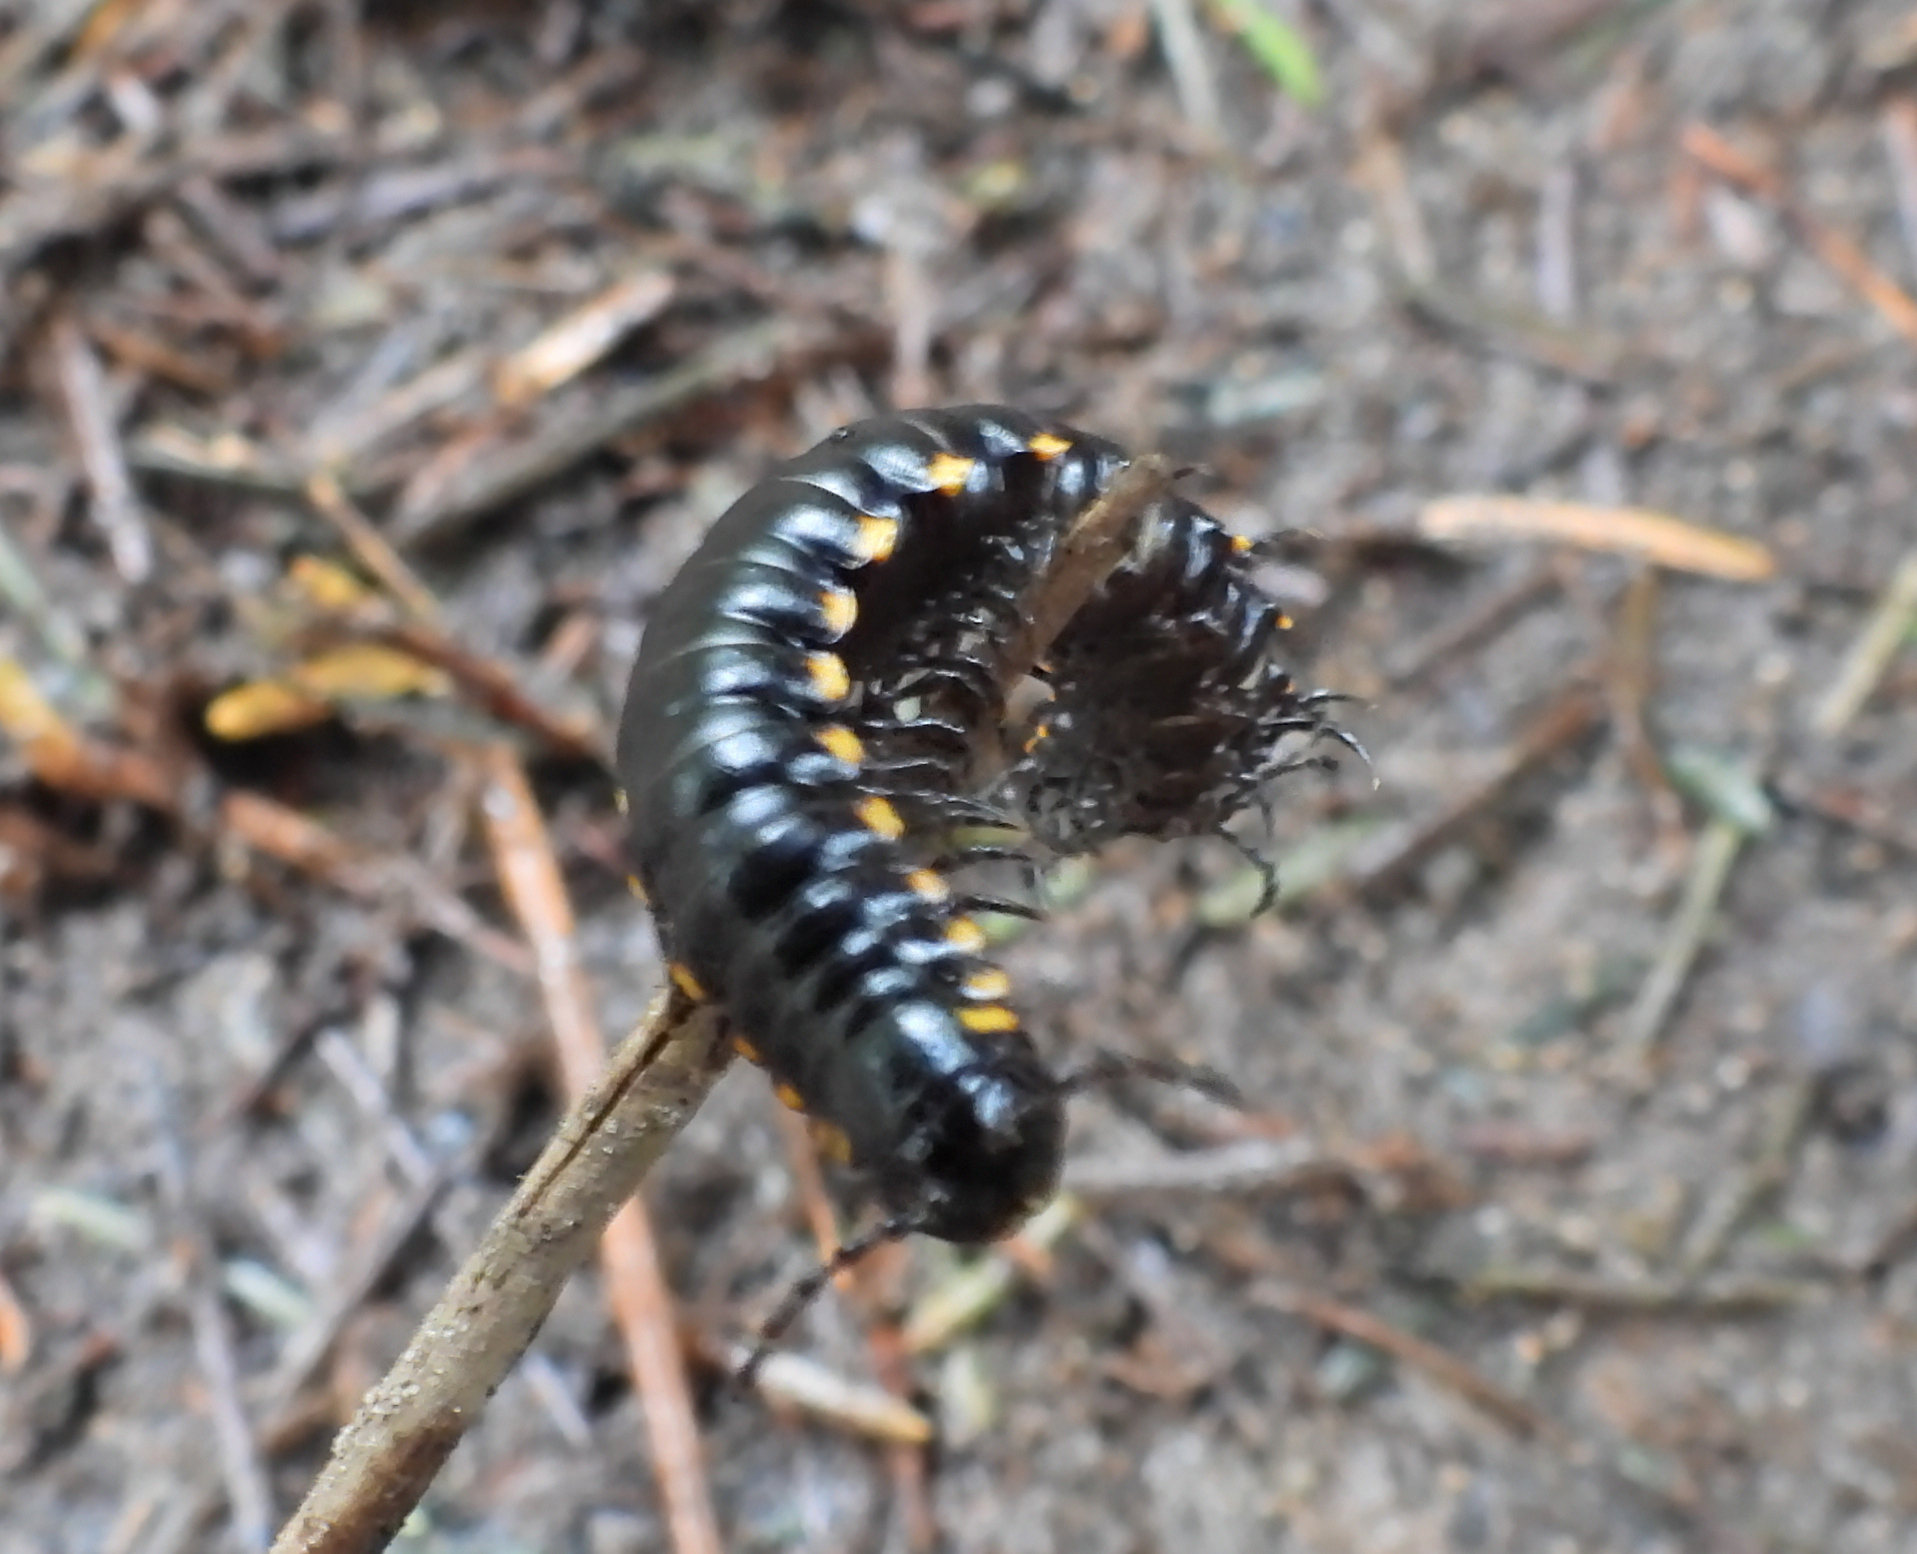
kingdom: Animalia
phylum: Arthropoda
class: Diplopoda
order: Polydesmida
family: Xystodesmidae
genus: Harpaphe
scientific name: Harpaphe haydeniana
